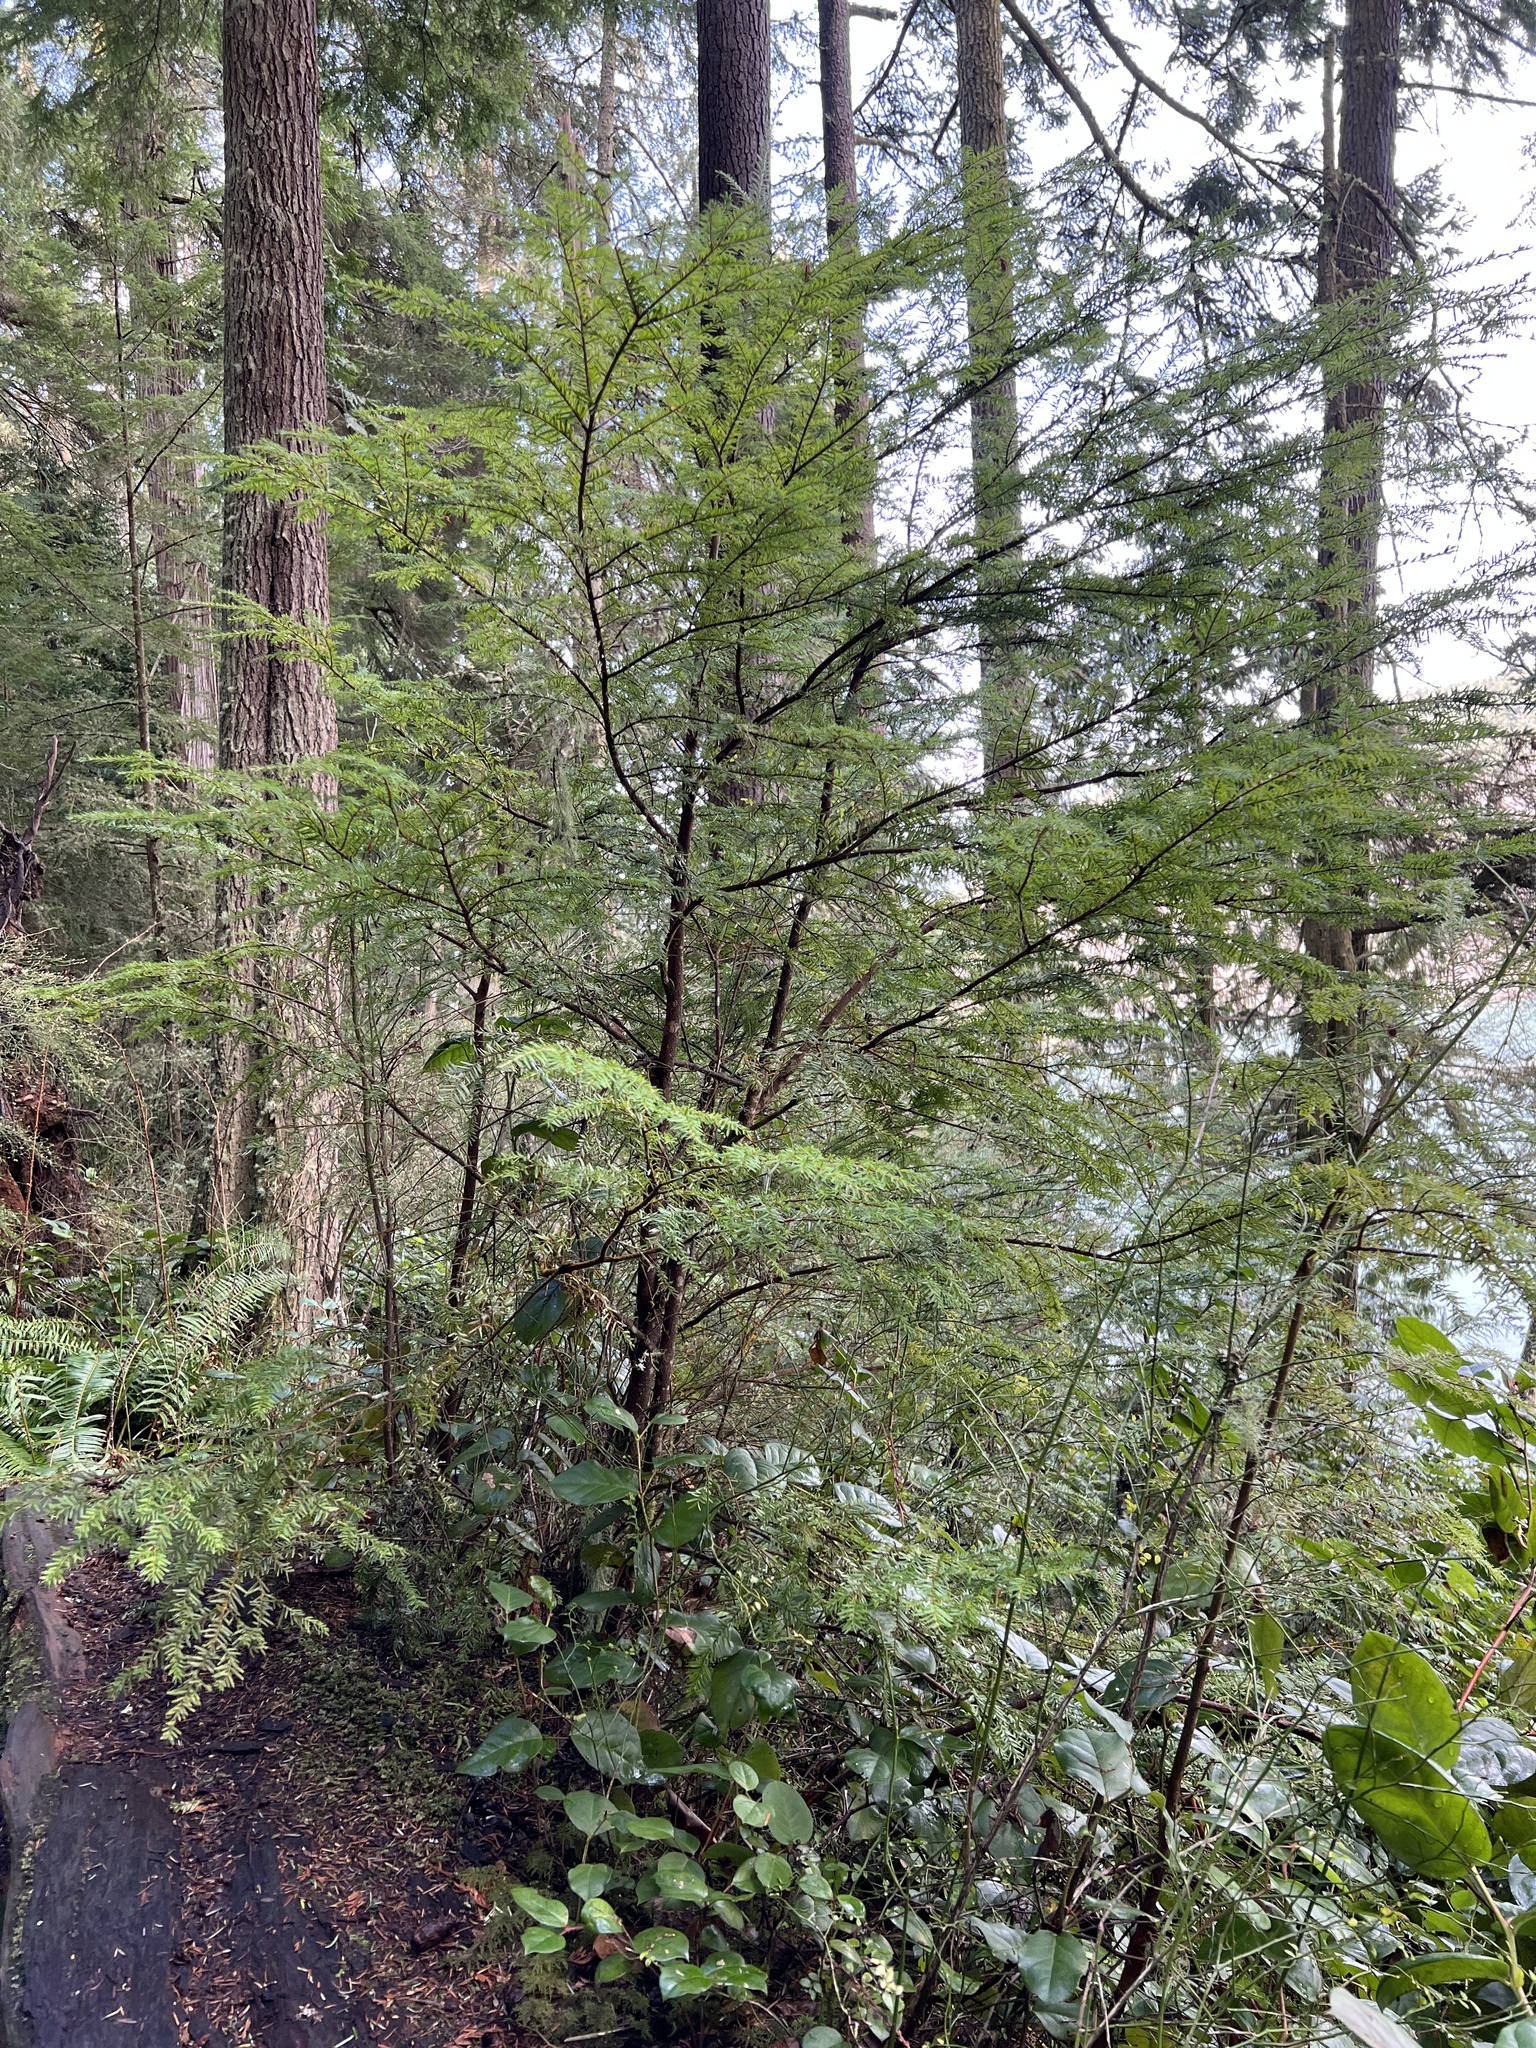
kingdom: Plantae
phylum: Tracheophyta
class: Pinopsida
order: Pinales
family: Pinaceae
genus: Tsuga
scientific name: Tsuga heterophylla
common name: Western hemlock
